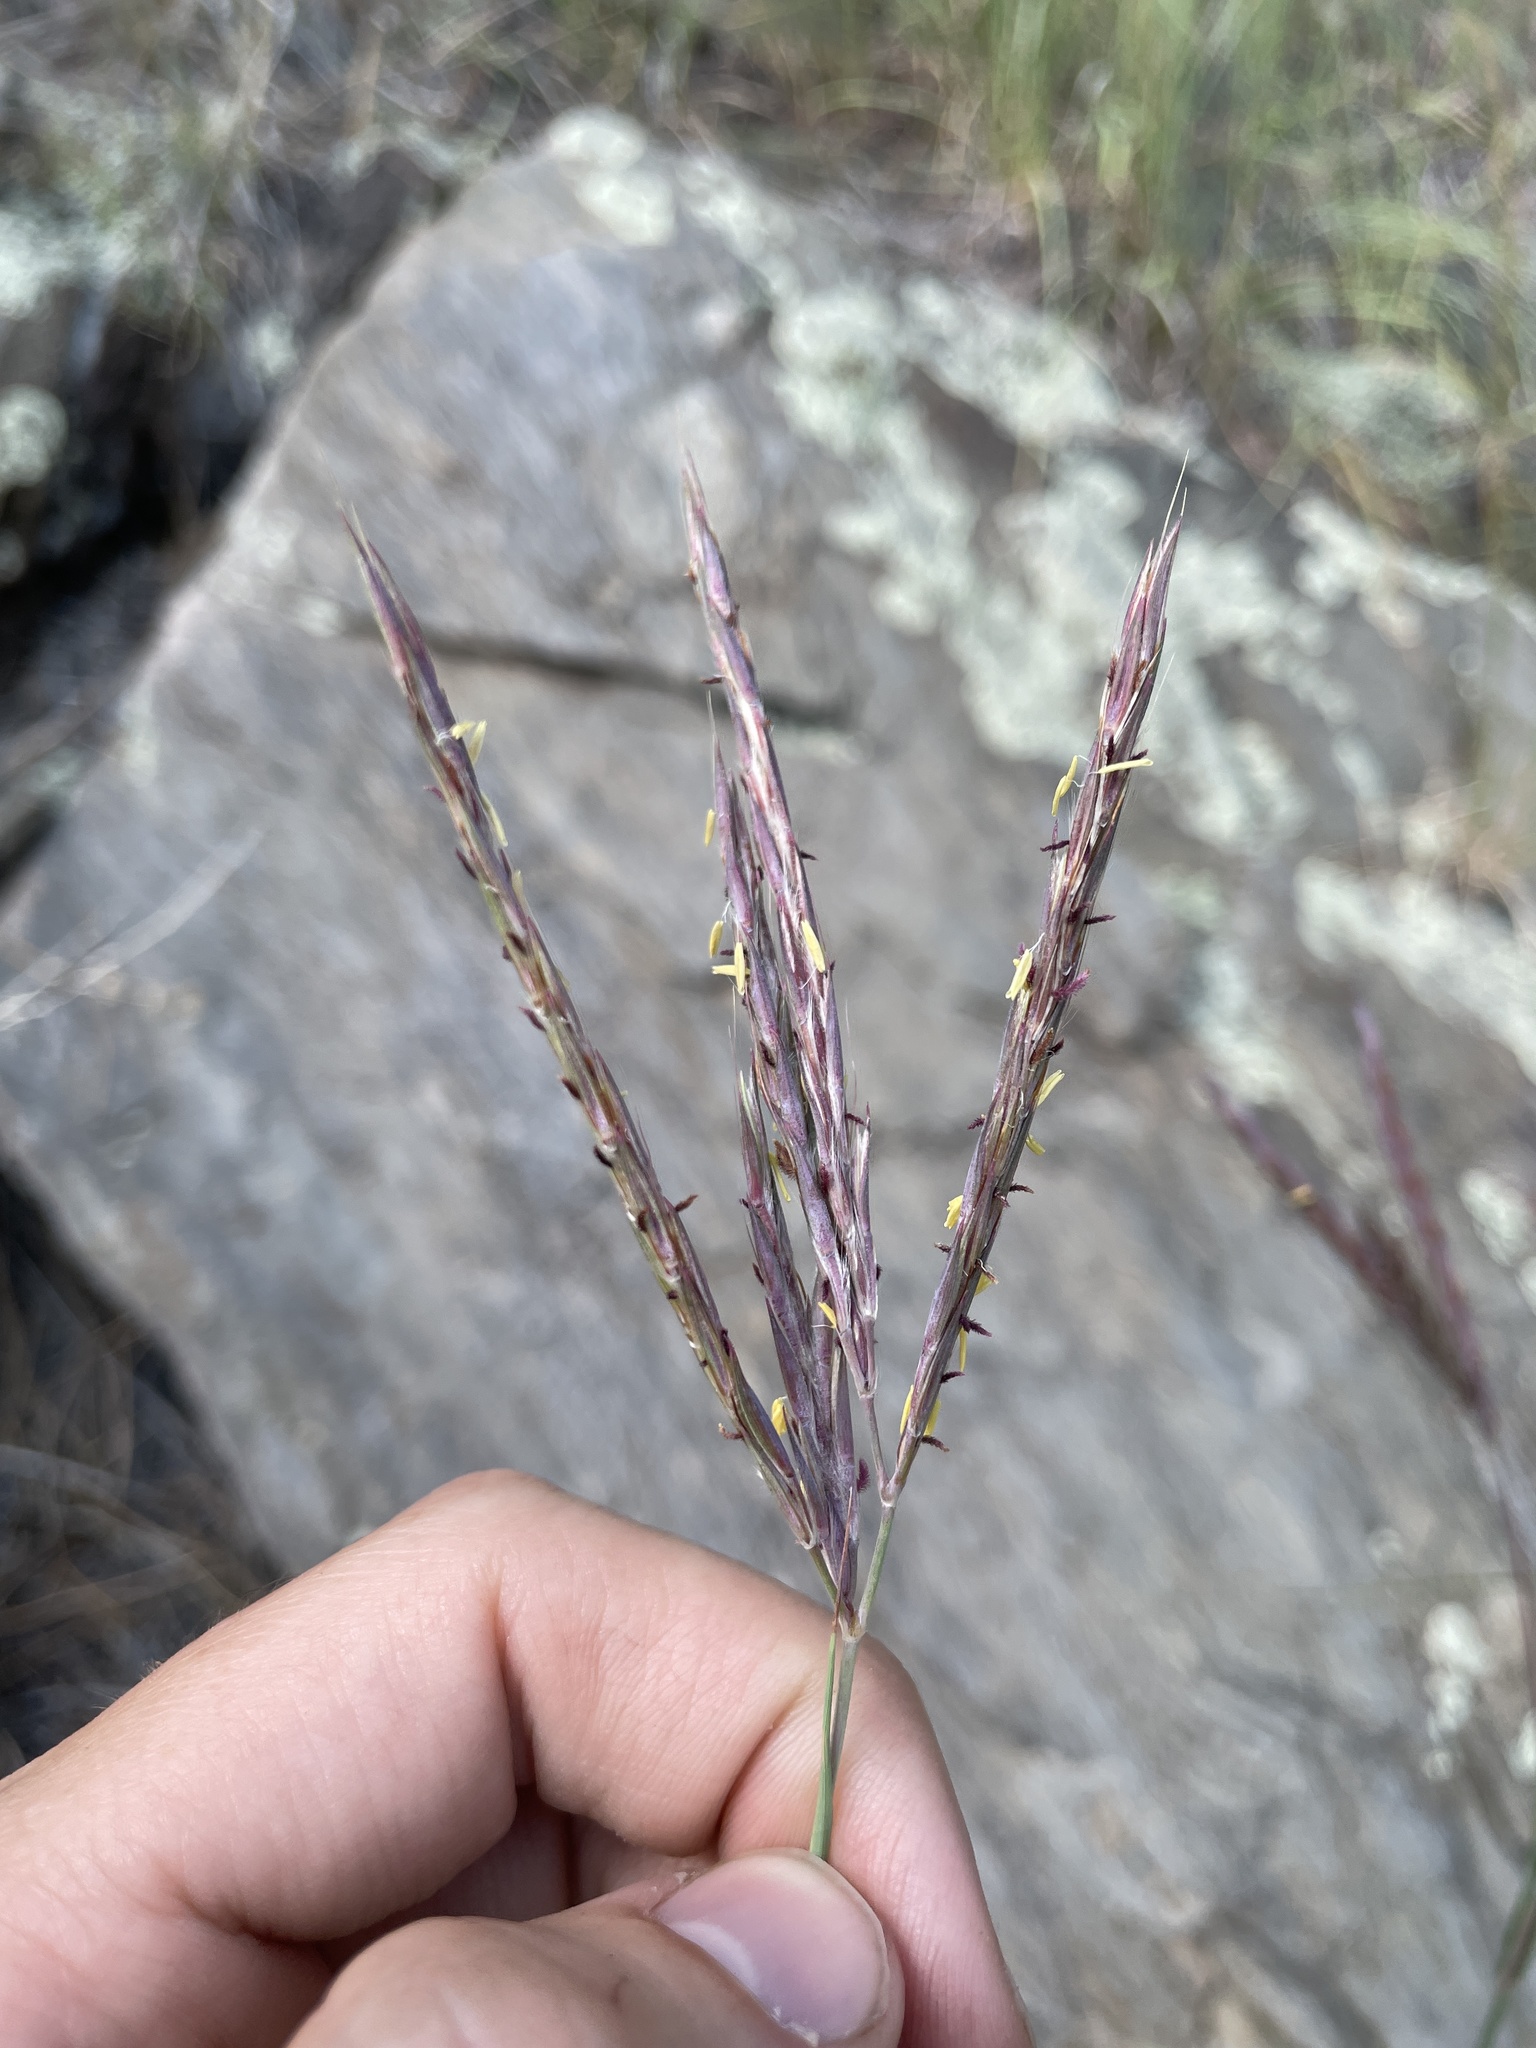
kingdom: Plantae
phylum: Tracheophyta
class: Liliopsida
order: Poales
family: Poaceae
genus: Andropogon
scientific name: Andropogon gerardi
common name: Big bluestem
